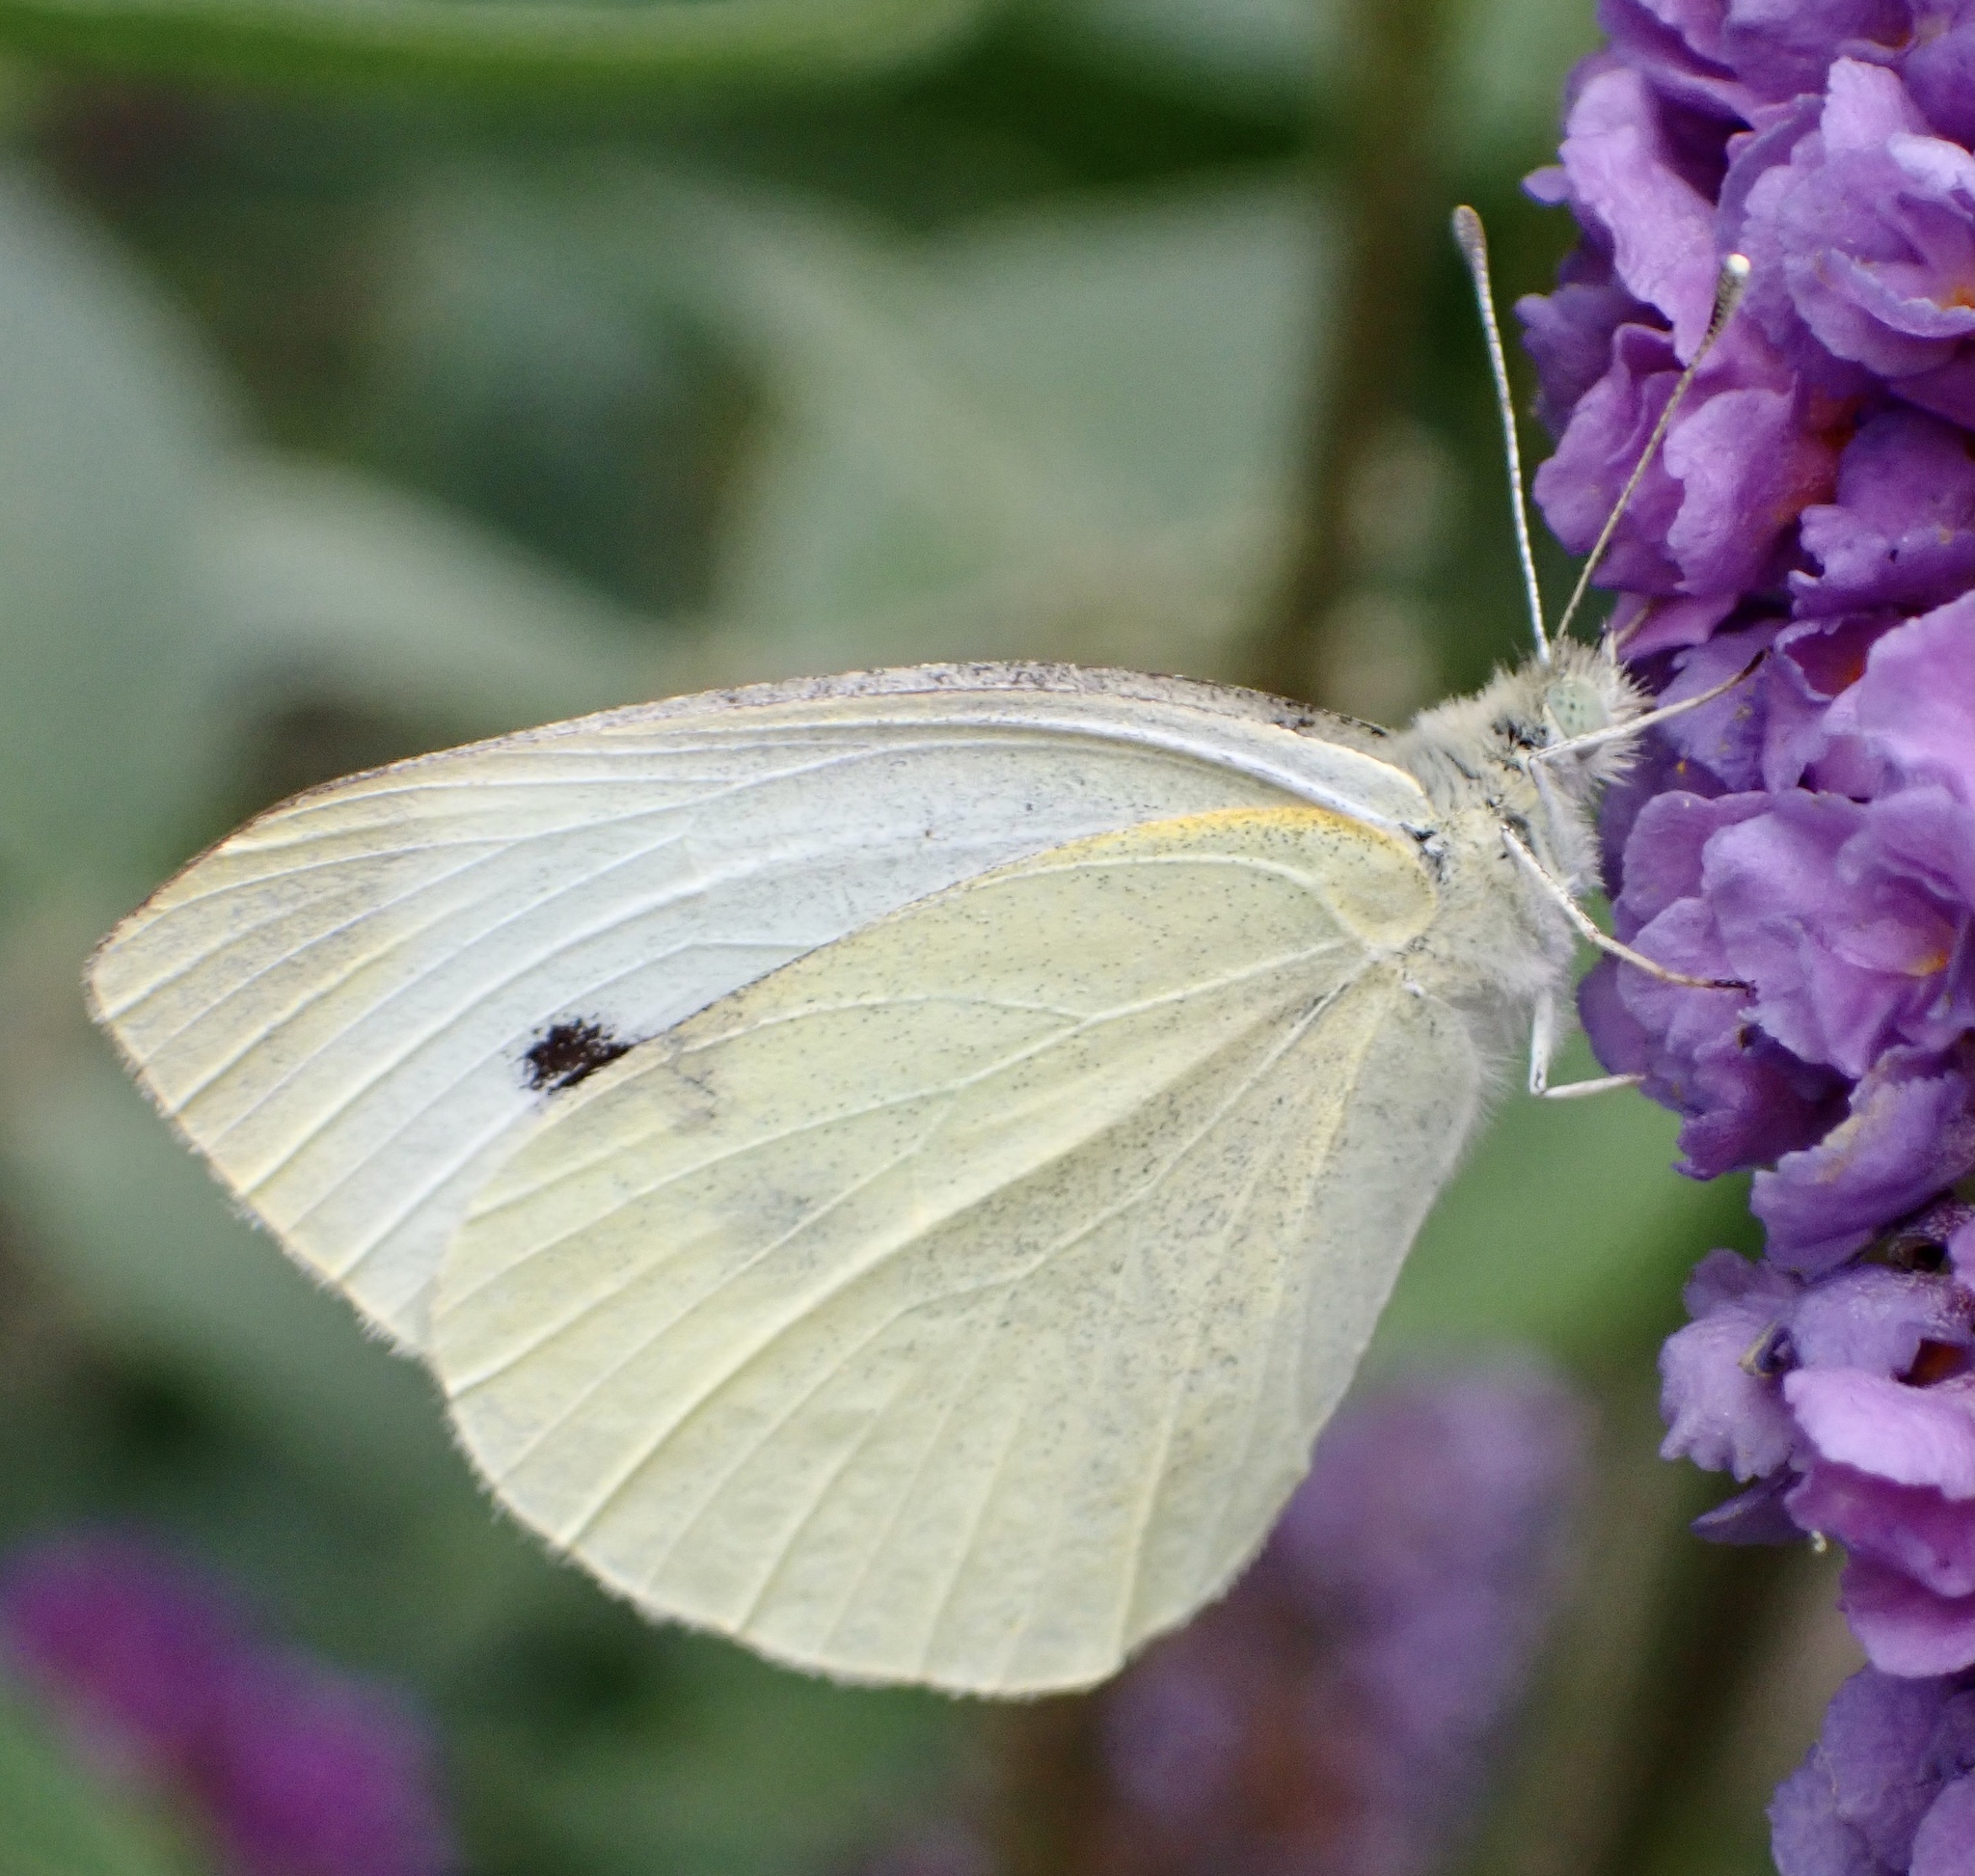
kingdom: Animalia
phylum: Arthropoda
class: Insecta
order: Lepidoptera
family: Pieridae
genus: Pieris
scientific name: Pieris rapae
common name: Small white
